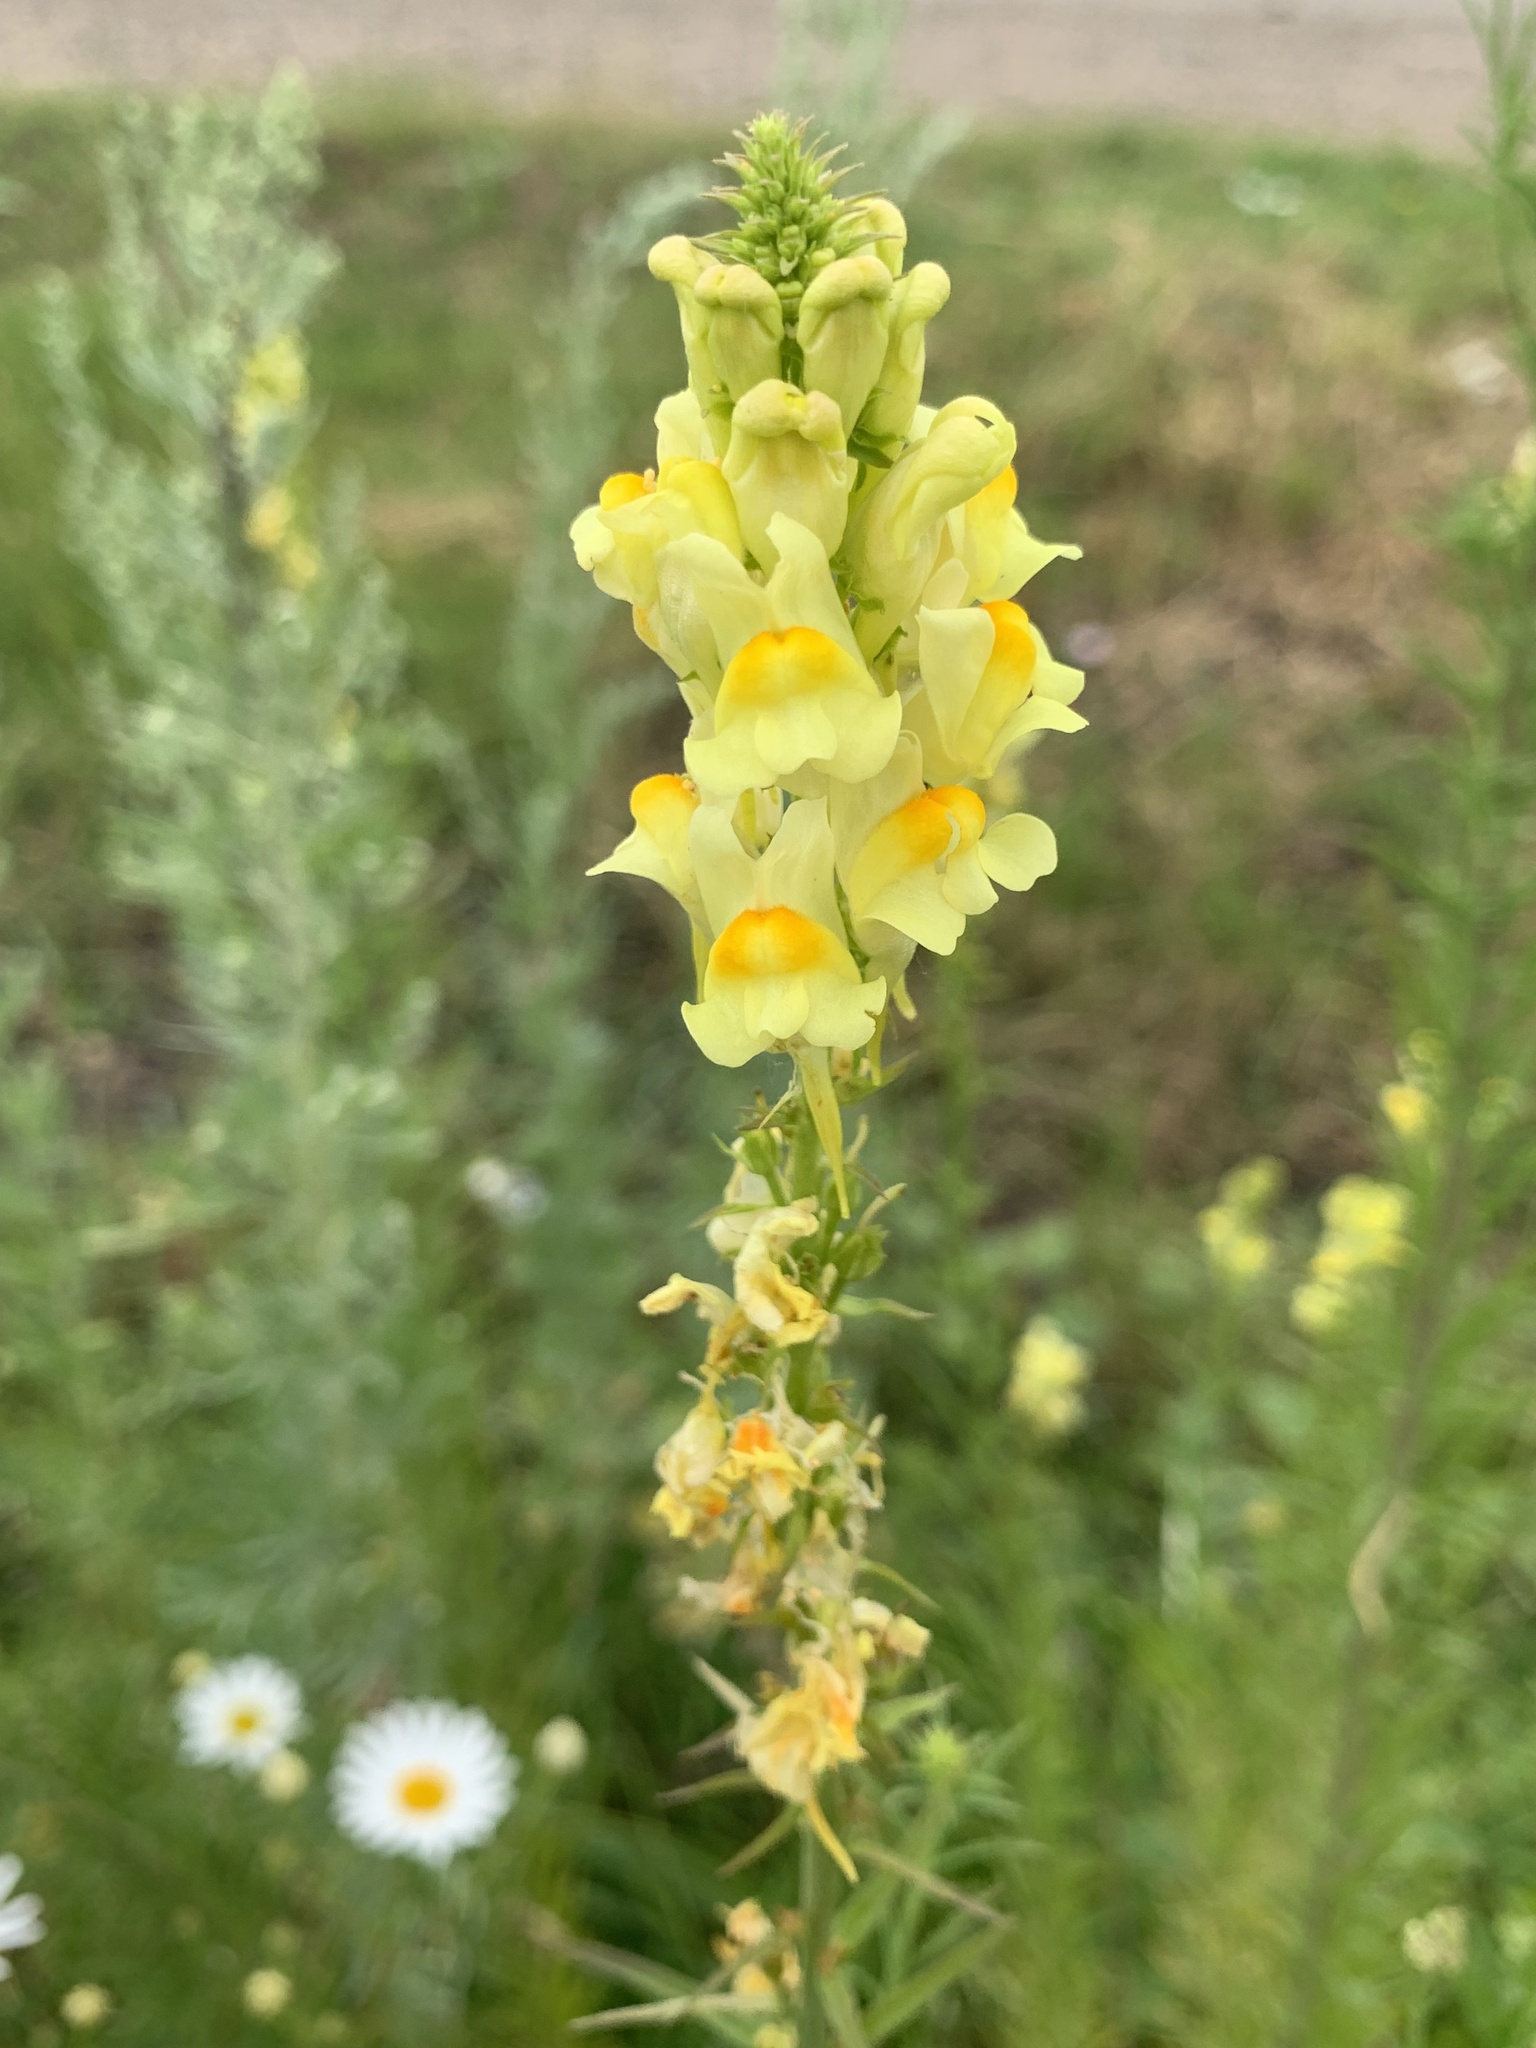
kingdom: Plantae
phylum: Tracheophyta
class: Magnoliopsida
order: Lamiales
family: Plantaginaceae
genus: Linaria
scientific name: Linaria vulgaris
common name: Butter and eggs
